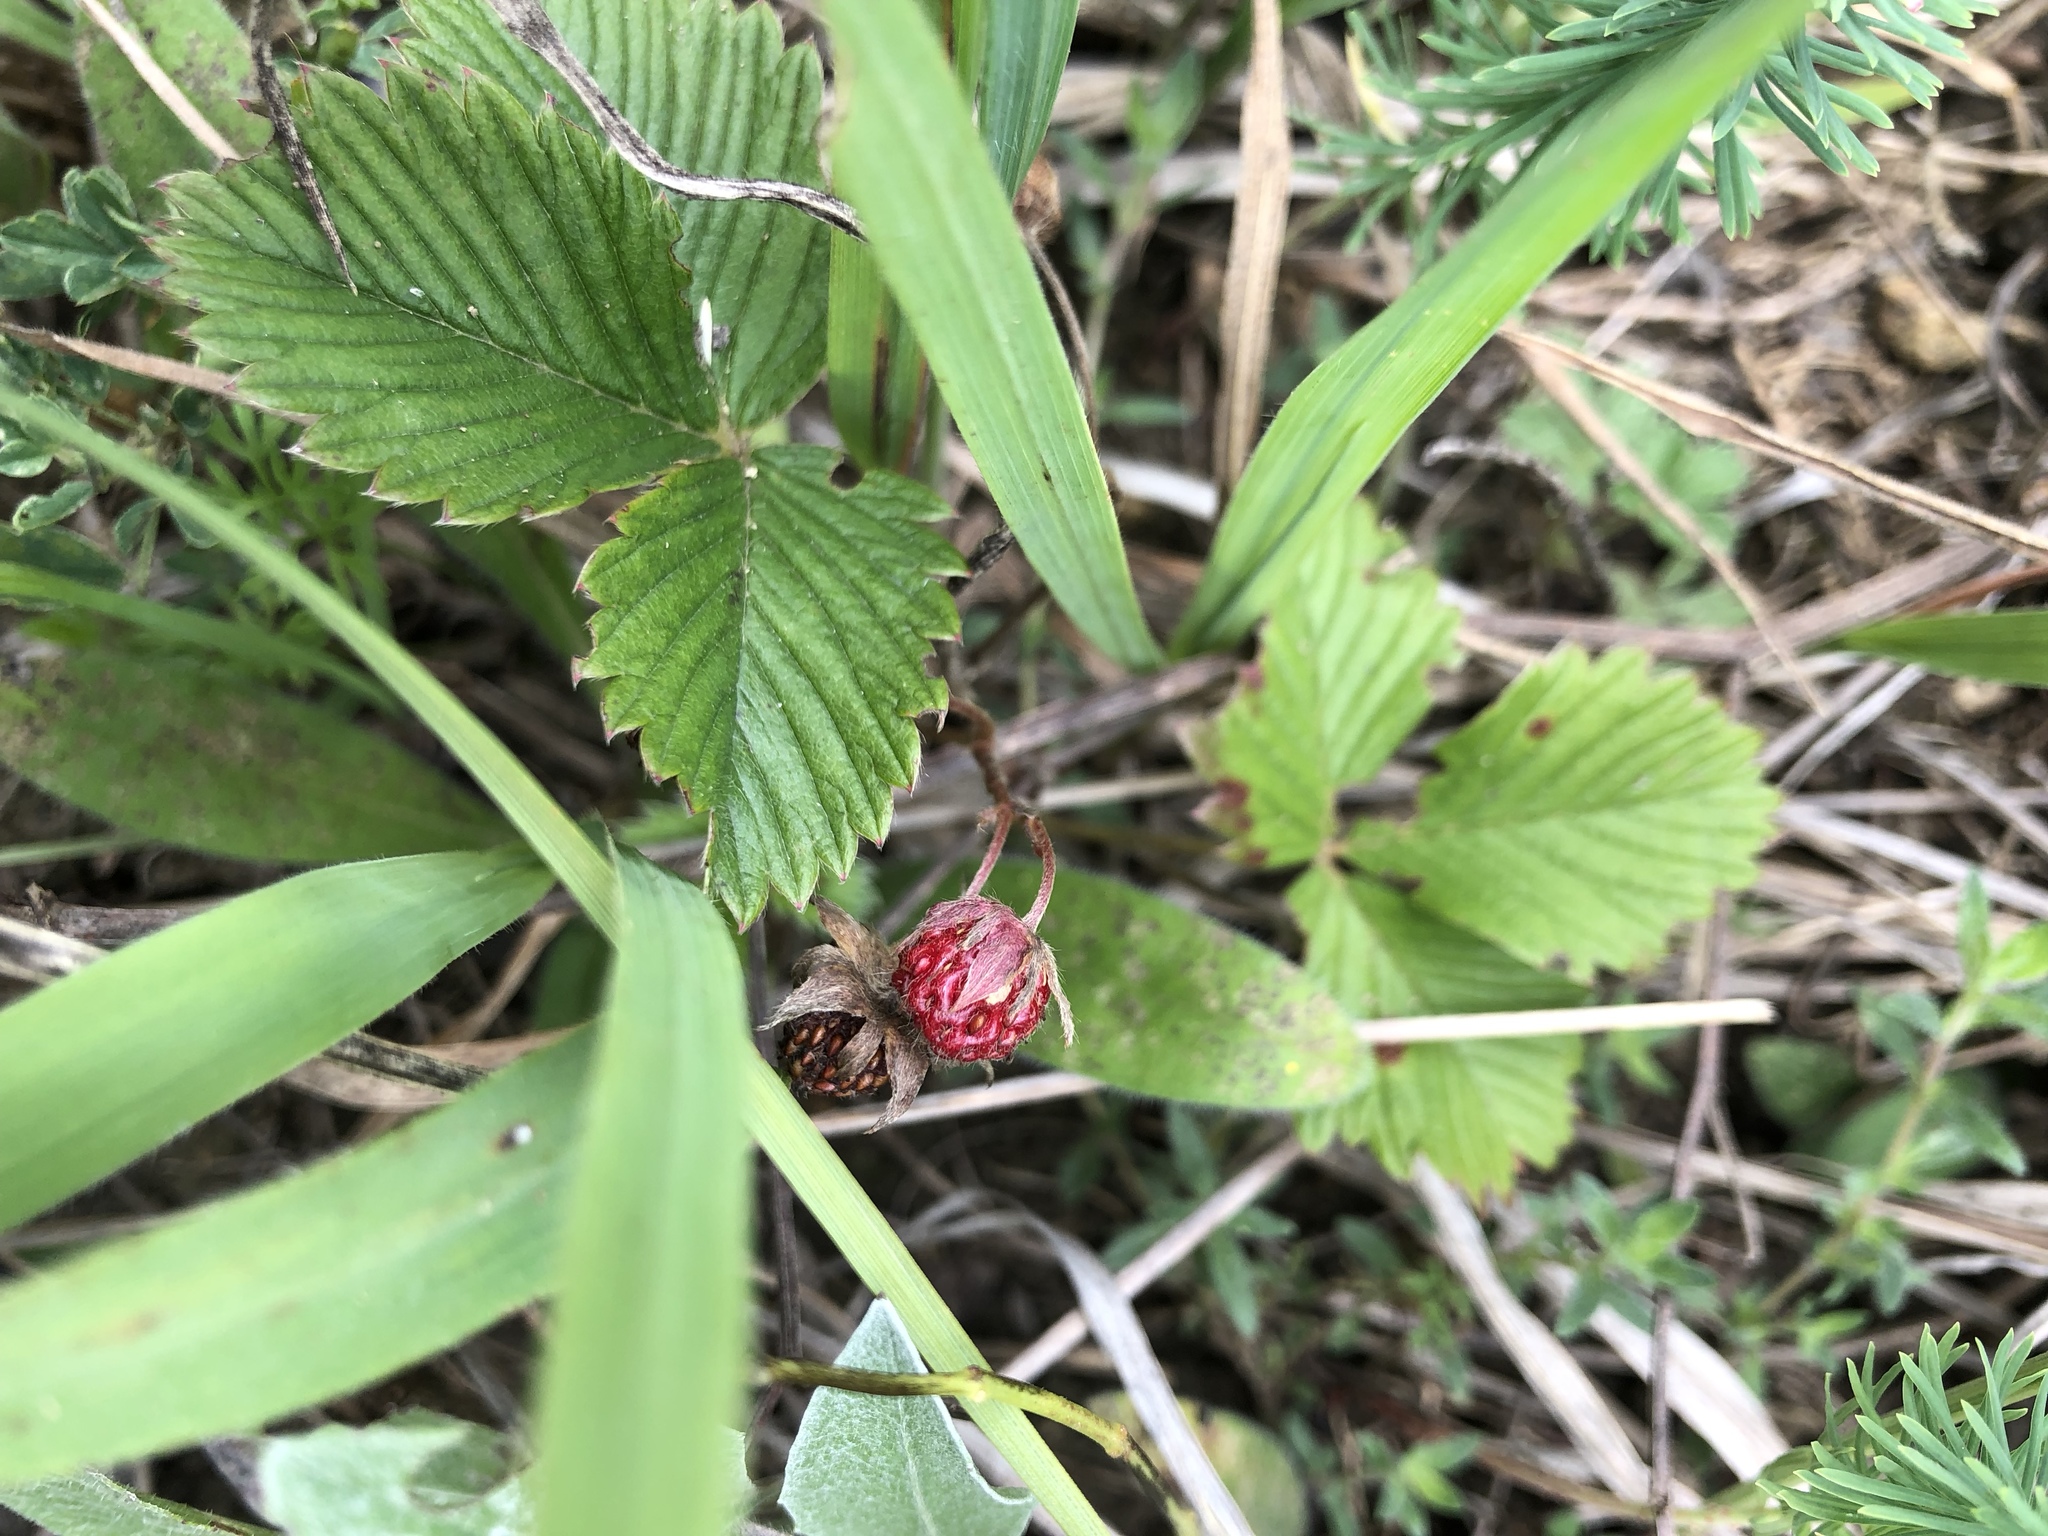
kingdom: Plantae
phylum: Tracheophyta
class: Magnoliopsida
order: Rosales
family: Rosaceae
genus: Fragaria
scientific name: Fragaria vesca
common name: Wild strawberry
